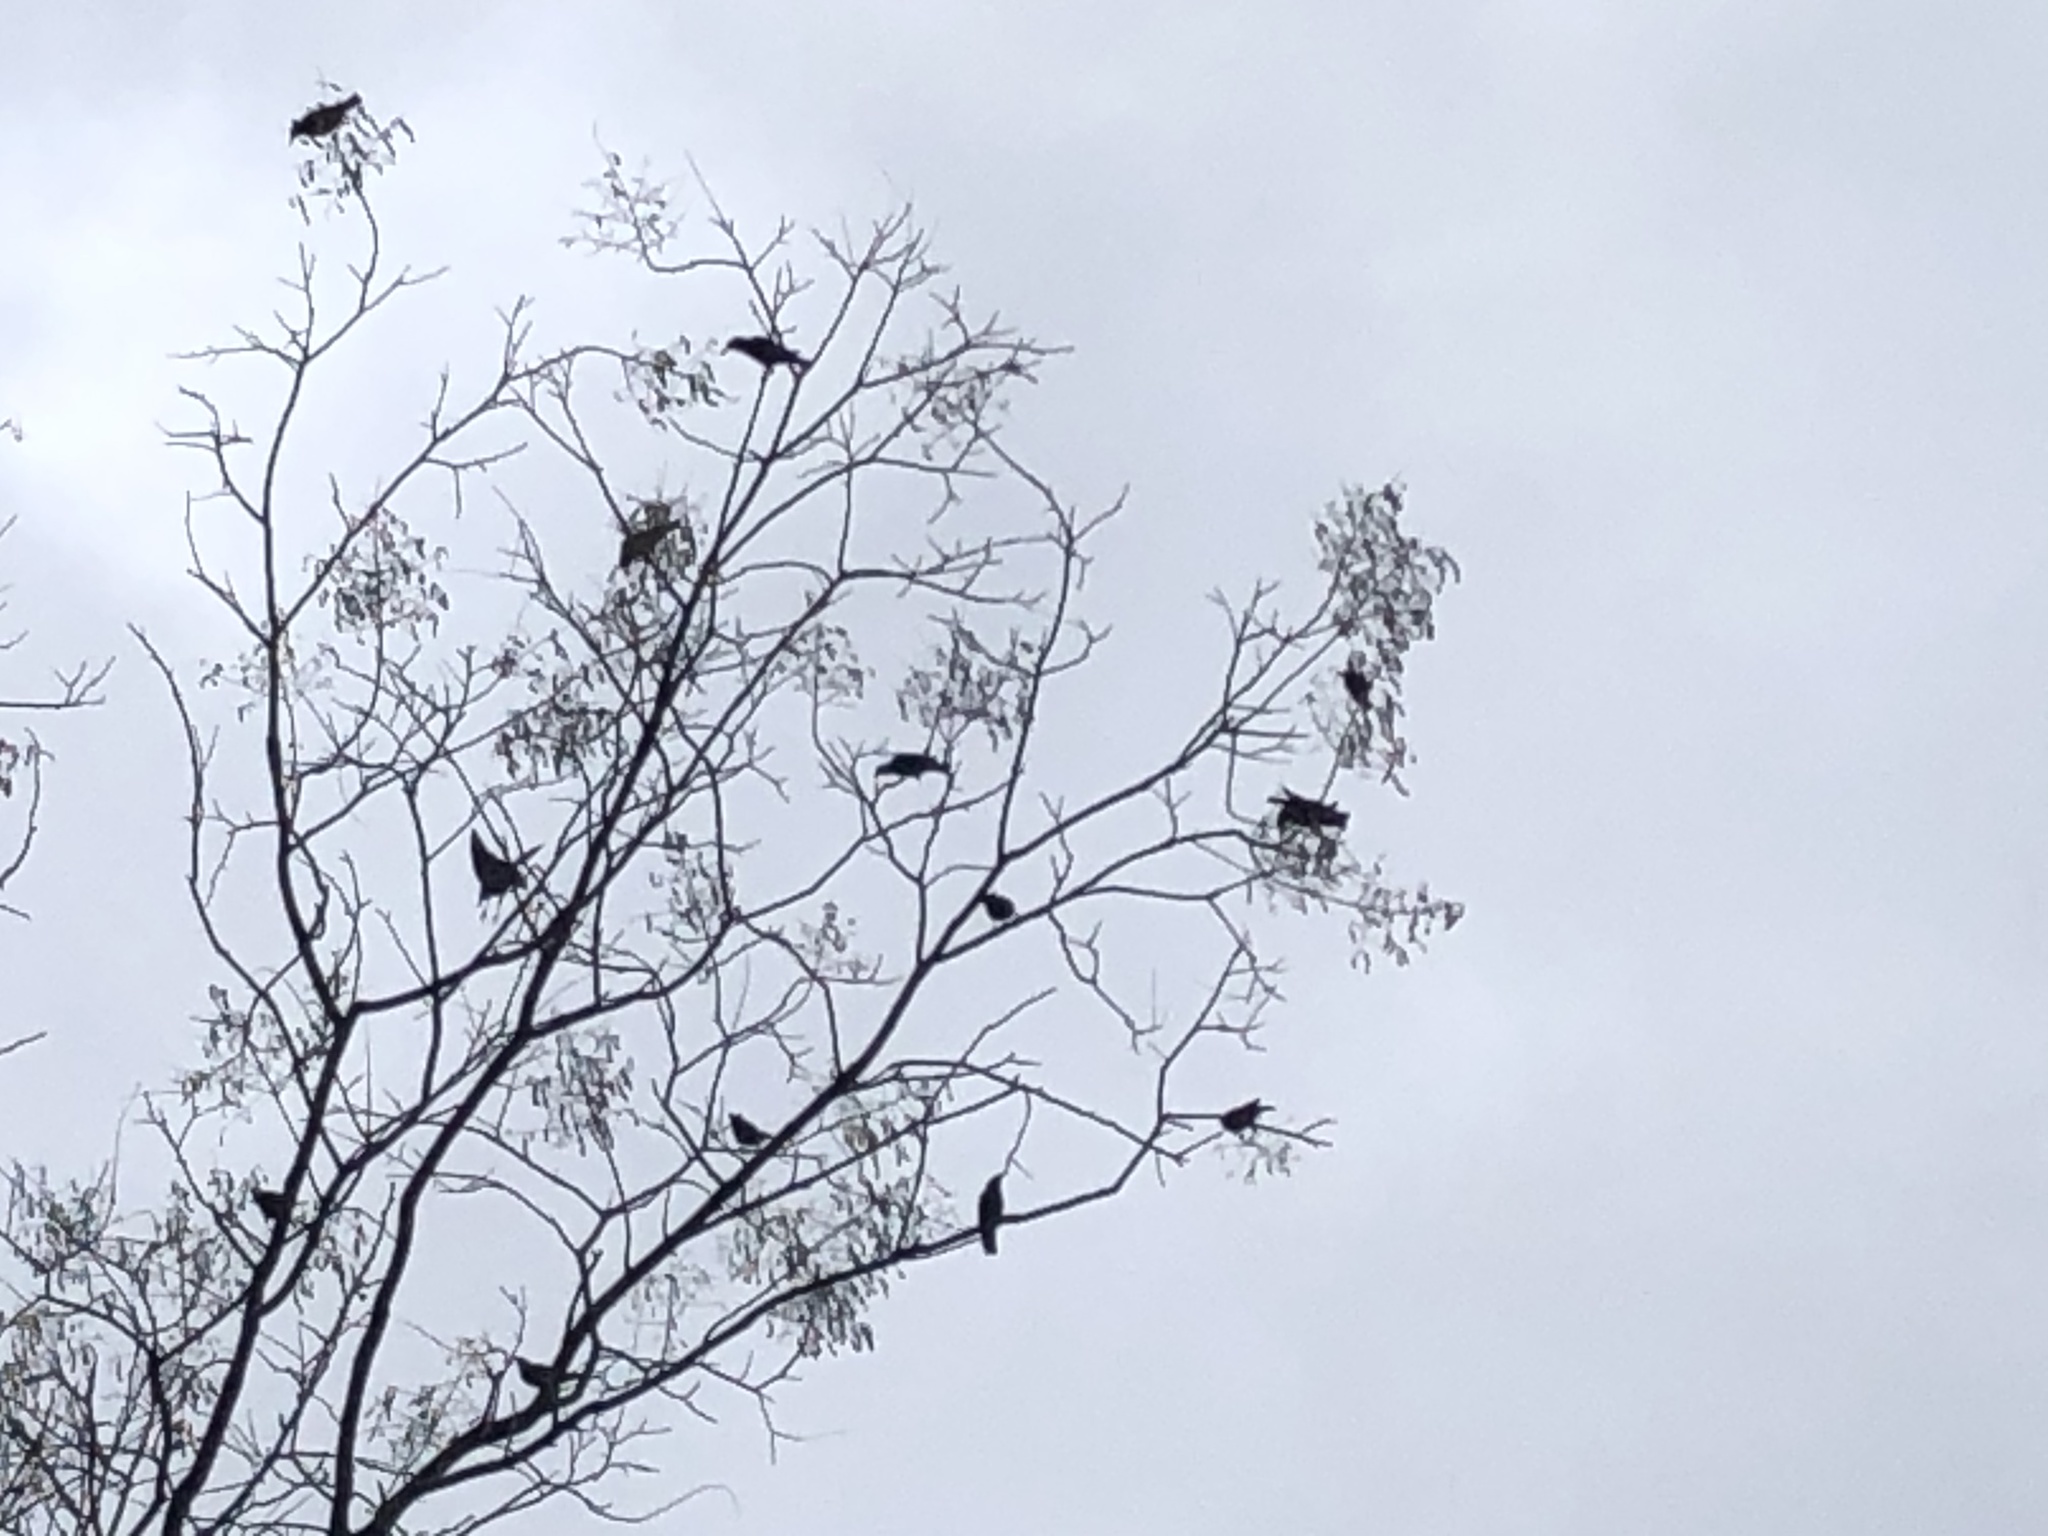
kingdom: Animalia
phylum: Chordata
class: Aves
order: Passeriformes
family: Sturnidae
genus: Sturnus
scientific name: Sturnus vulgaris
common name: Common starling
